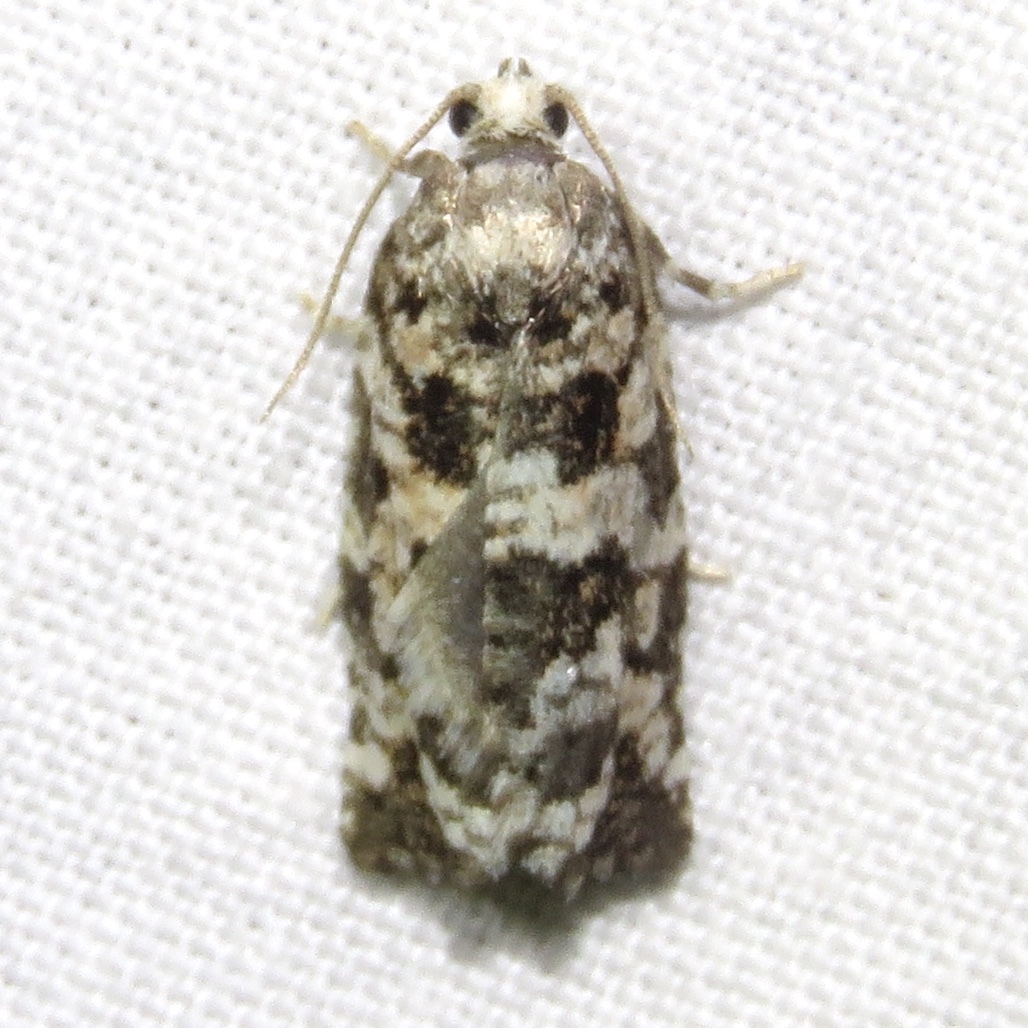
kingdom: Animalia
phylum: Arthropoda
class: Insecta
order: Lepidoptera
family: Tortricidae
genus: Archips
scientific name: Archips packardiana
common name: Spring spruce needle moth
